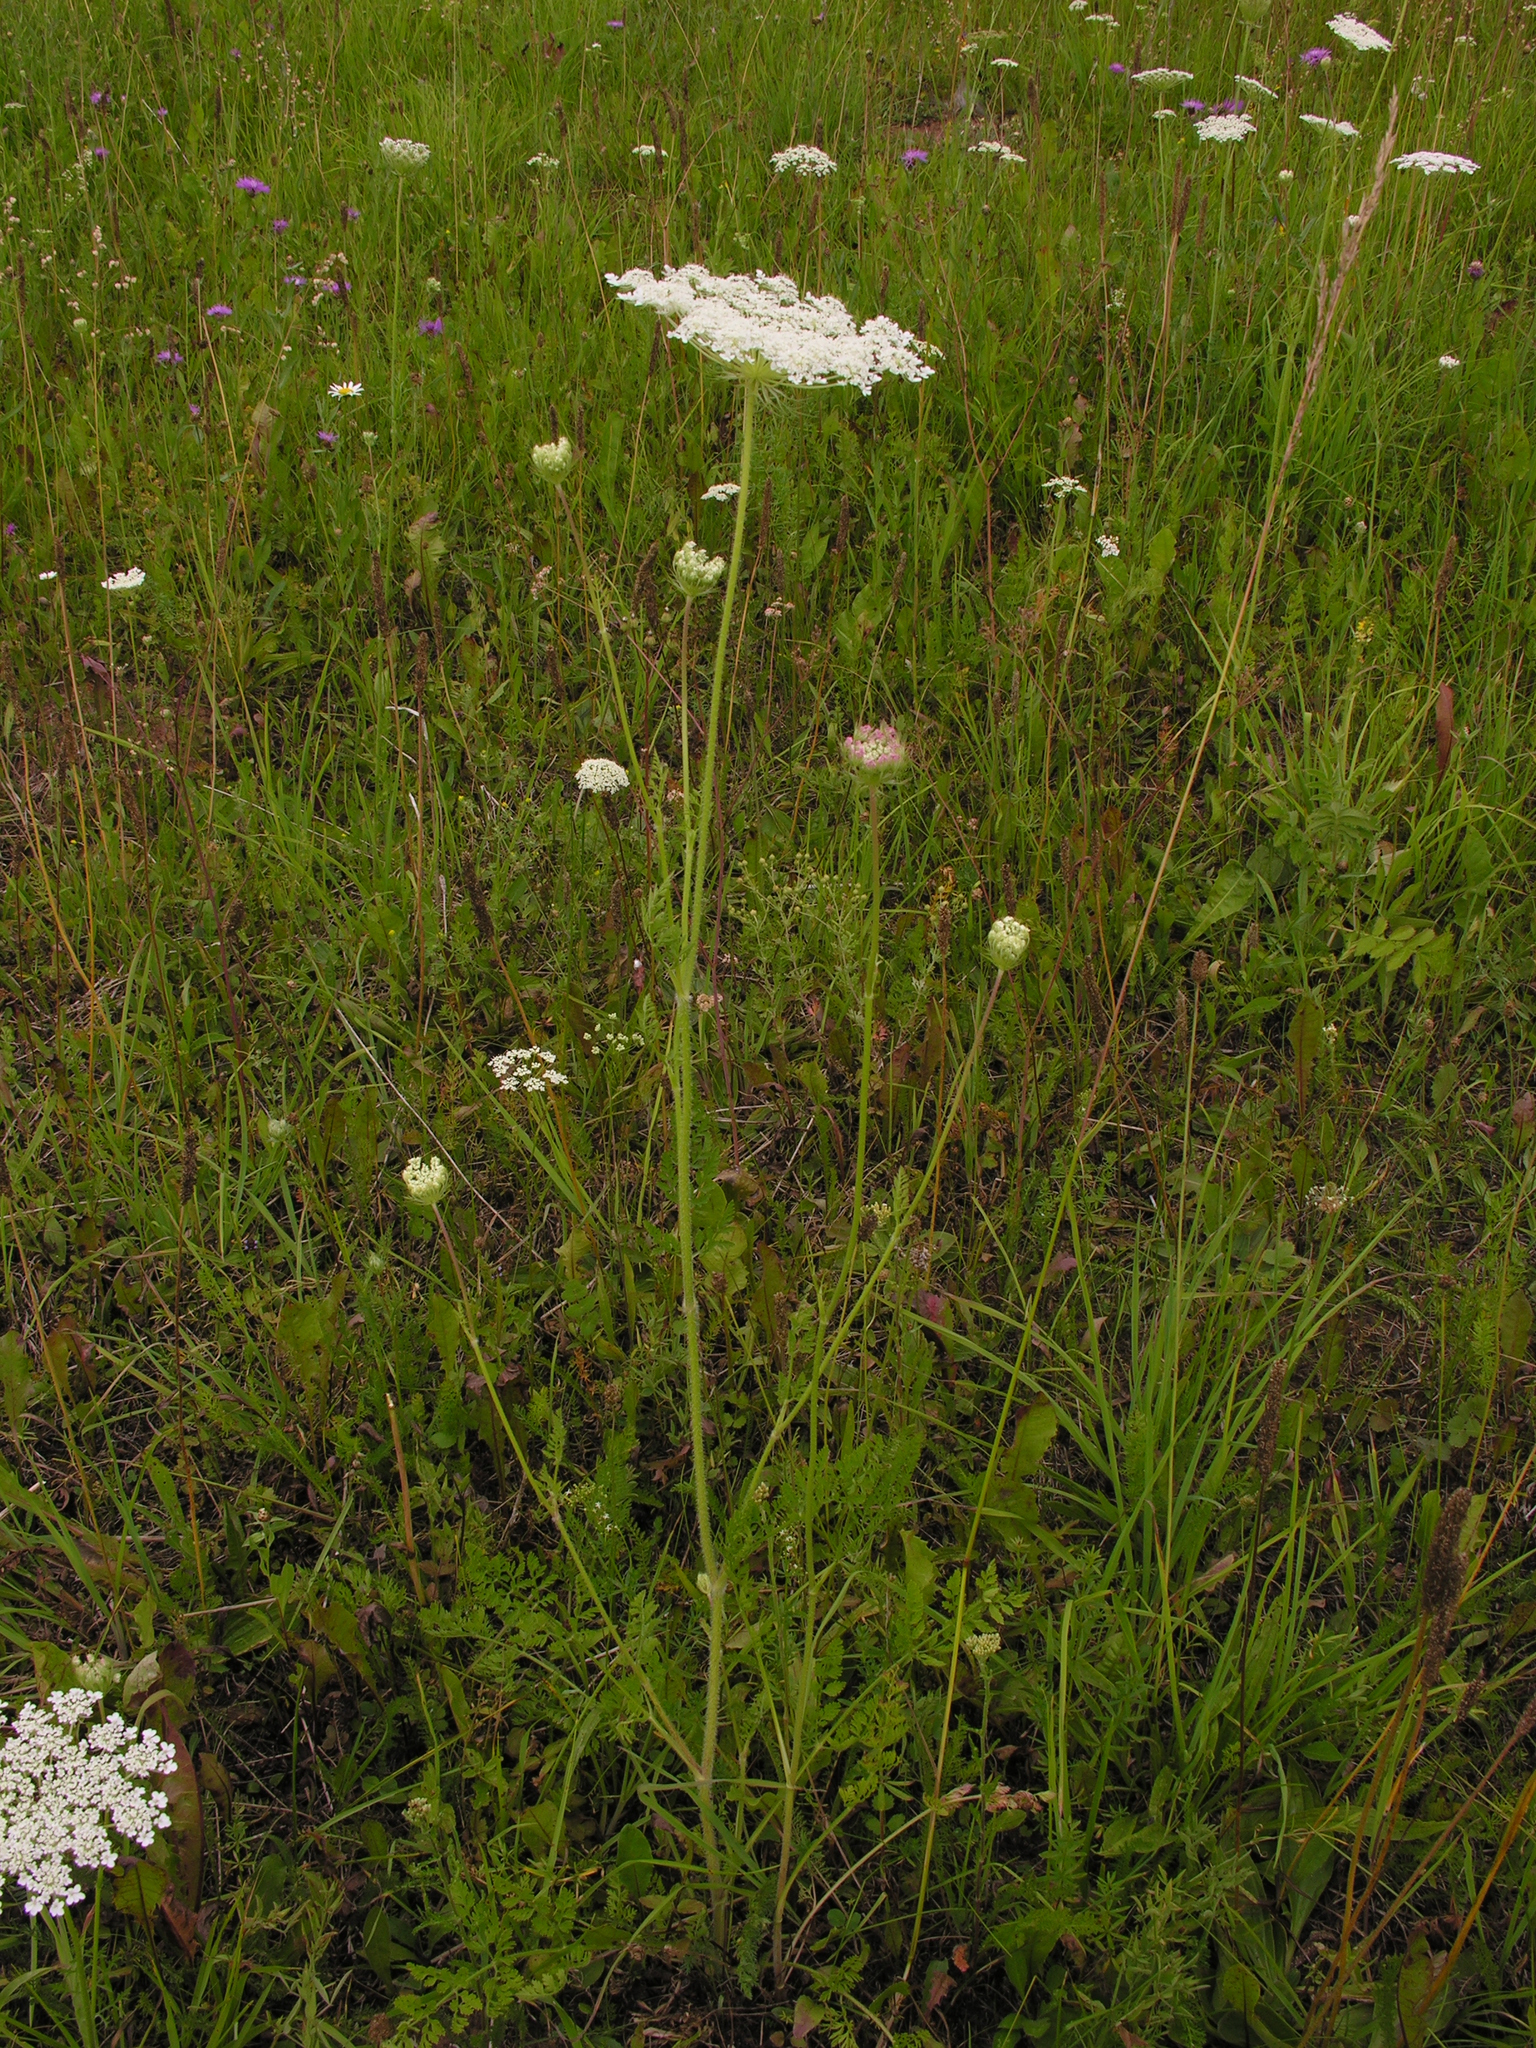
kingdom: Plantae
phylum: Tracheophyta
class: Magnoliopsida
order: Apiales
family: Apiaceae
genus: Daucus
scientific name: Daucus carota
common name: Wild carrot
